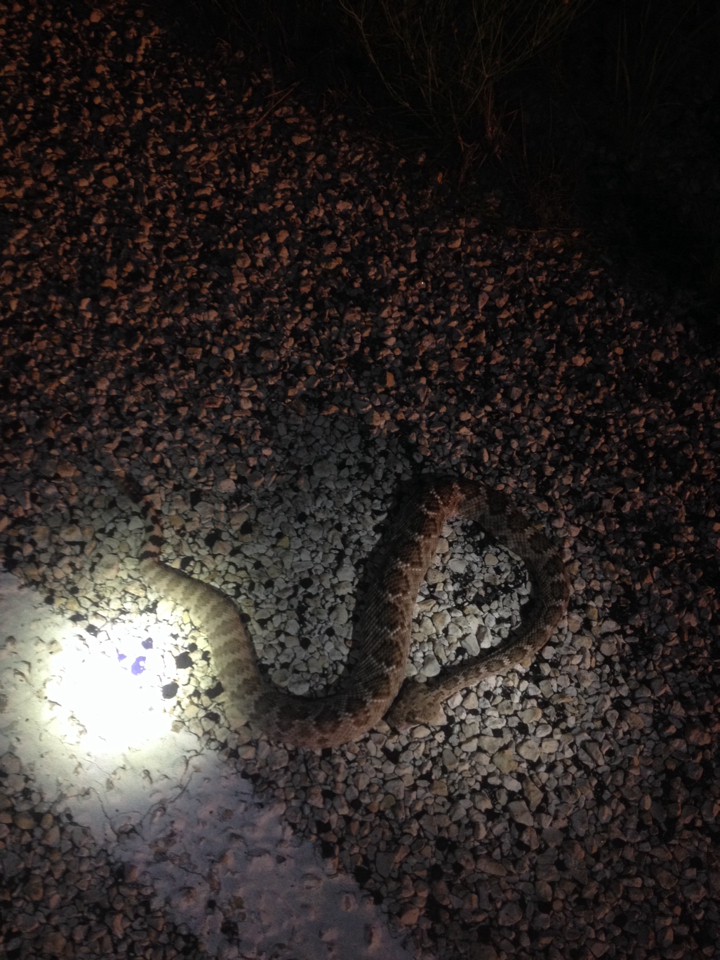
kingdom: Animalia
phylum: Chordata
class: Squamata
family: Viperidae
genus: Crotalus
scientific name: Crotalus atrox
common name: Western diamond-backed rattlesnake
